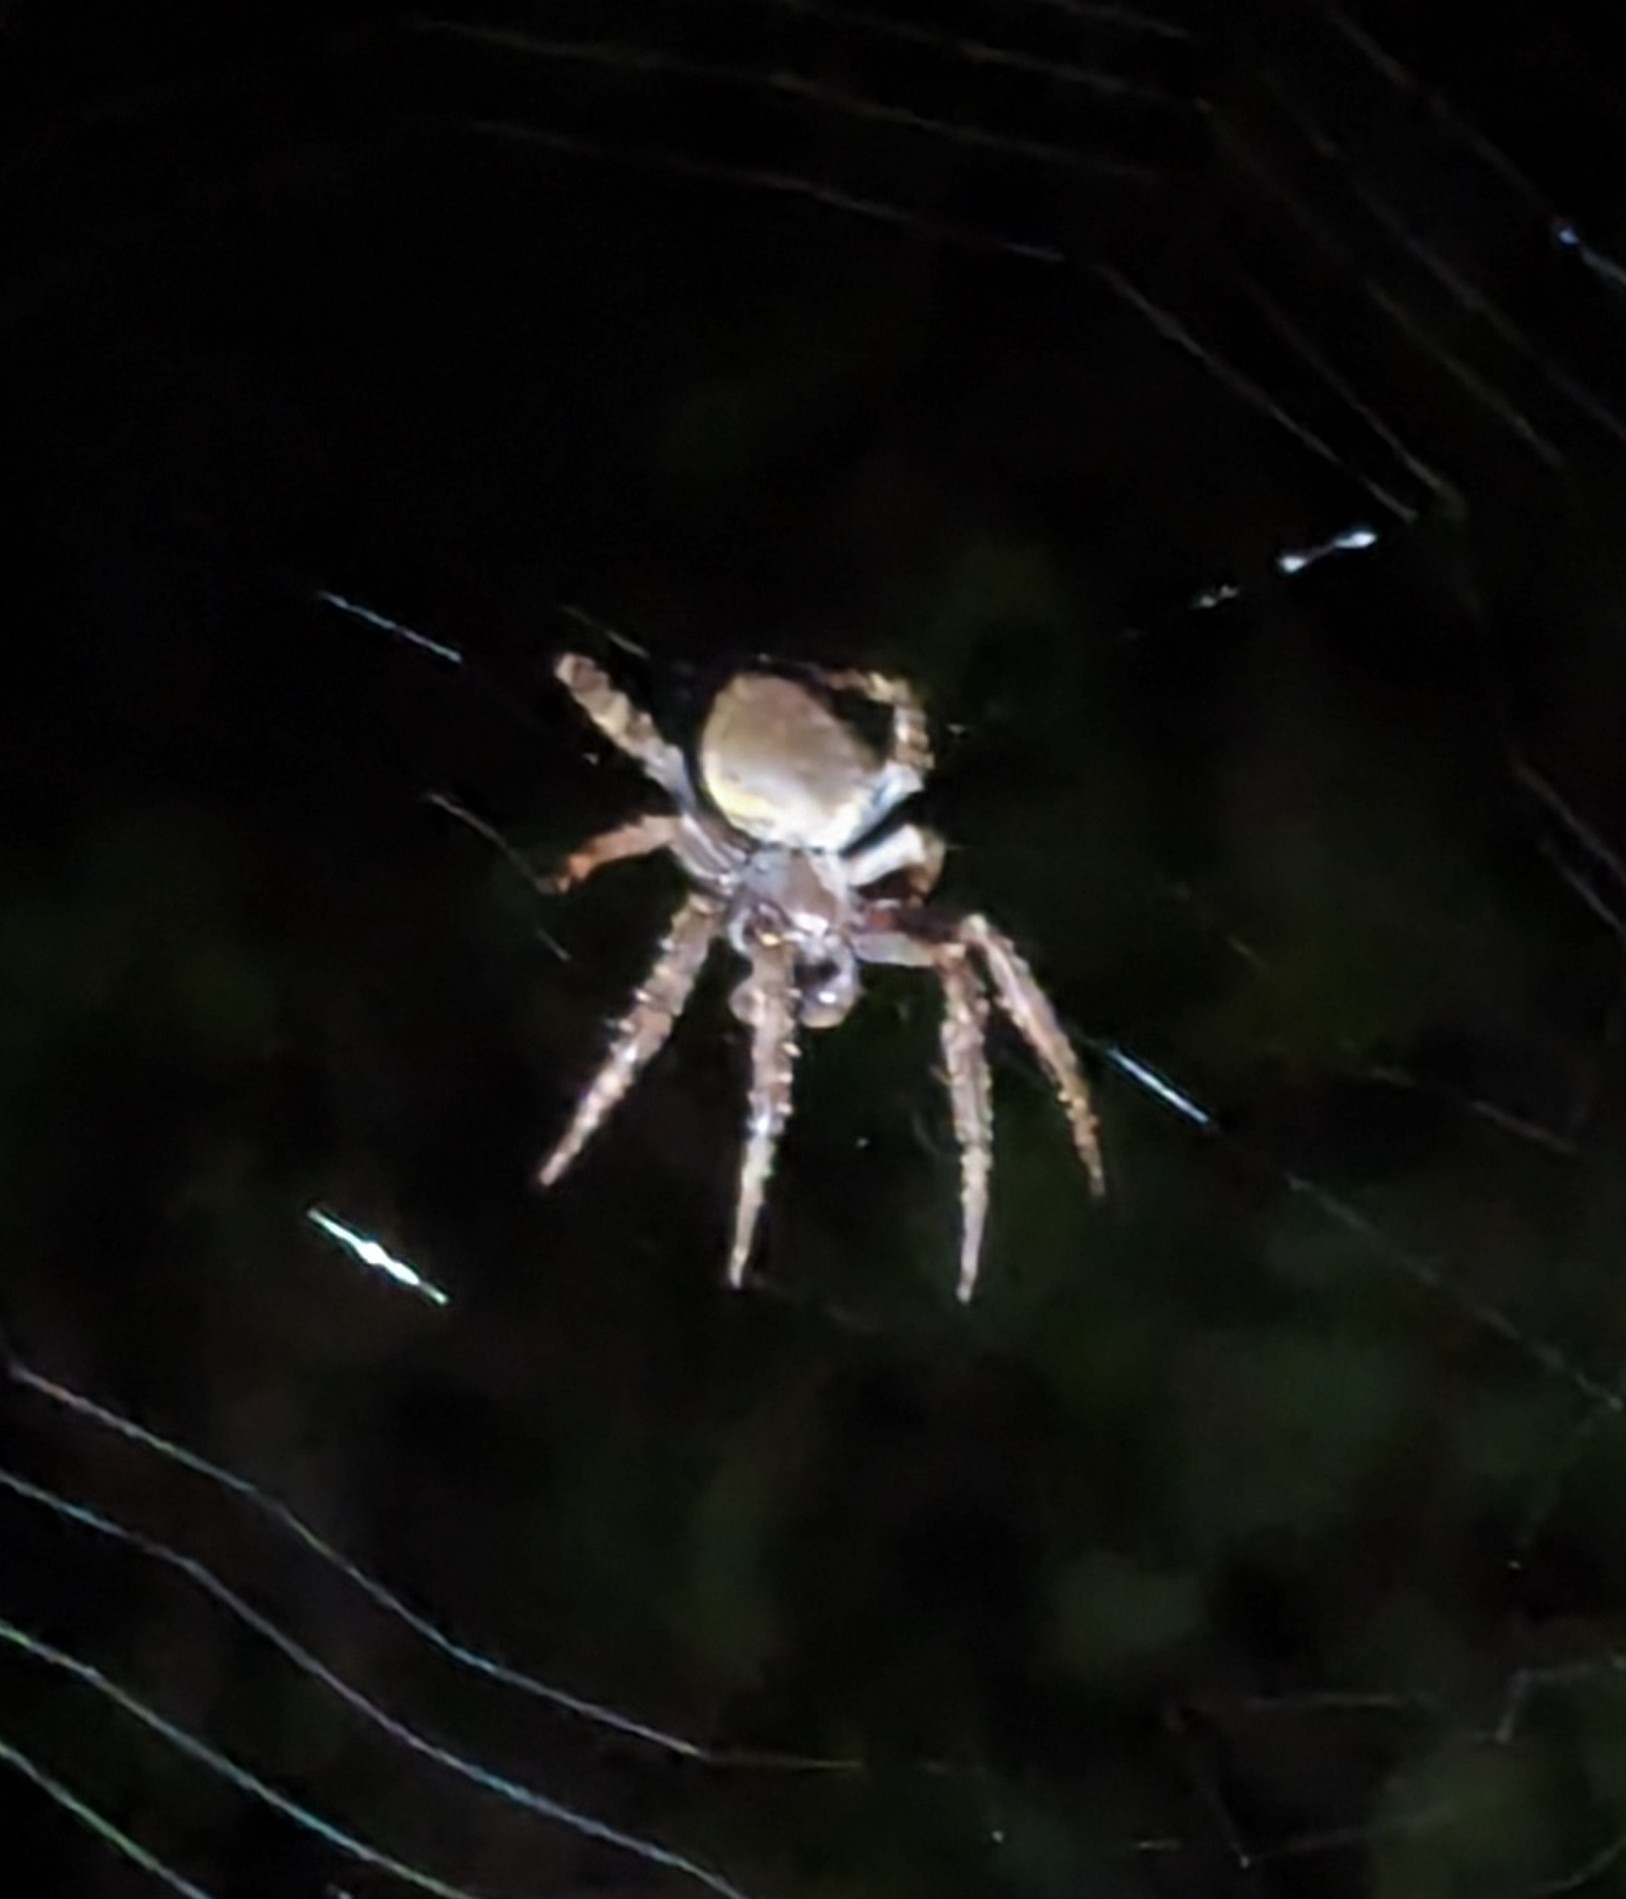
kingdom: Animalia
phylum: Arthropoda
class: Arachnida
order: Araneae
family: Araneidae
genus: Eriophora
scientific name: Eriophora ravilla
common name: Orb weavers
